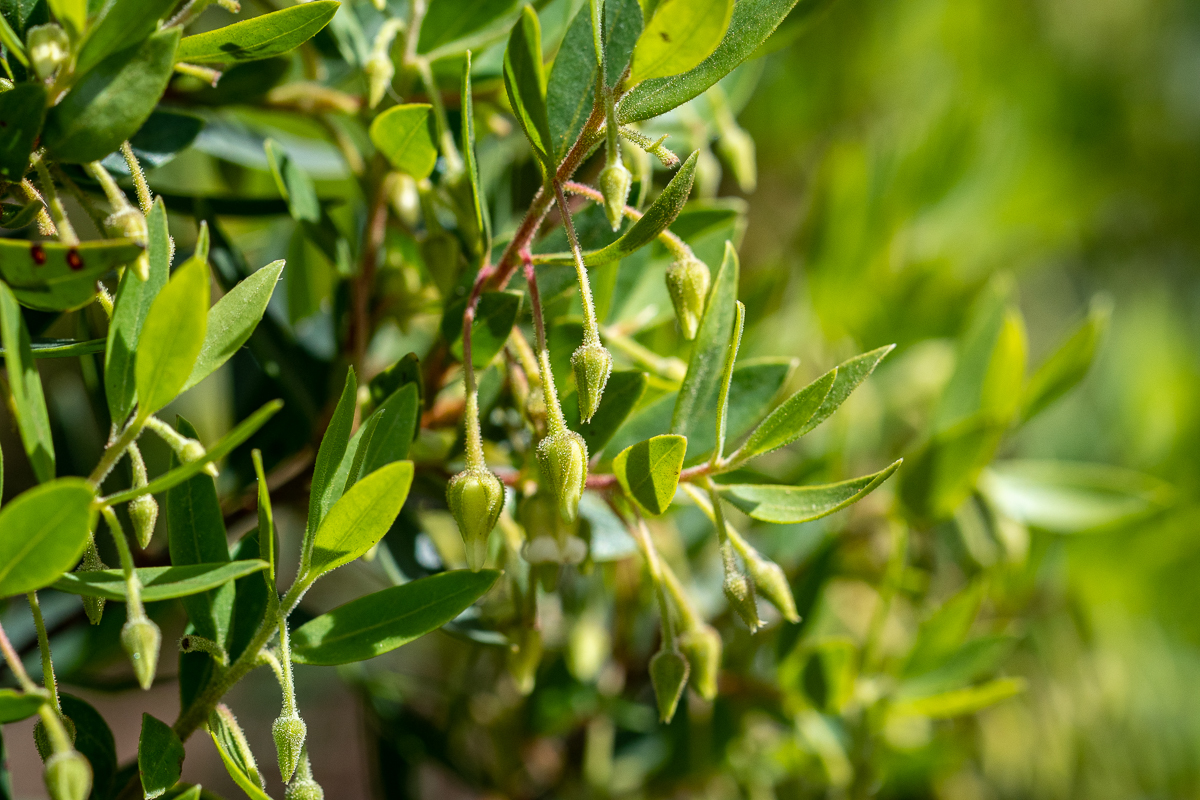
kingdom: Plantae
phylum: Tracheophyta
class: Magnoliopsida
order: Ericales
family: Ebenaceae
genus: Diospyros
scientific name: Diospyros glabra
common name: Fynbos star apple
